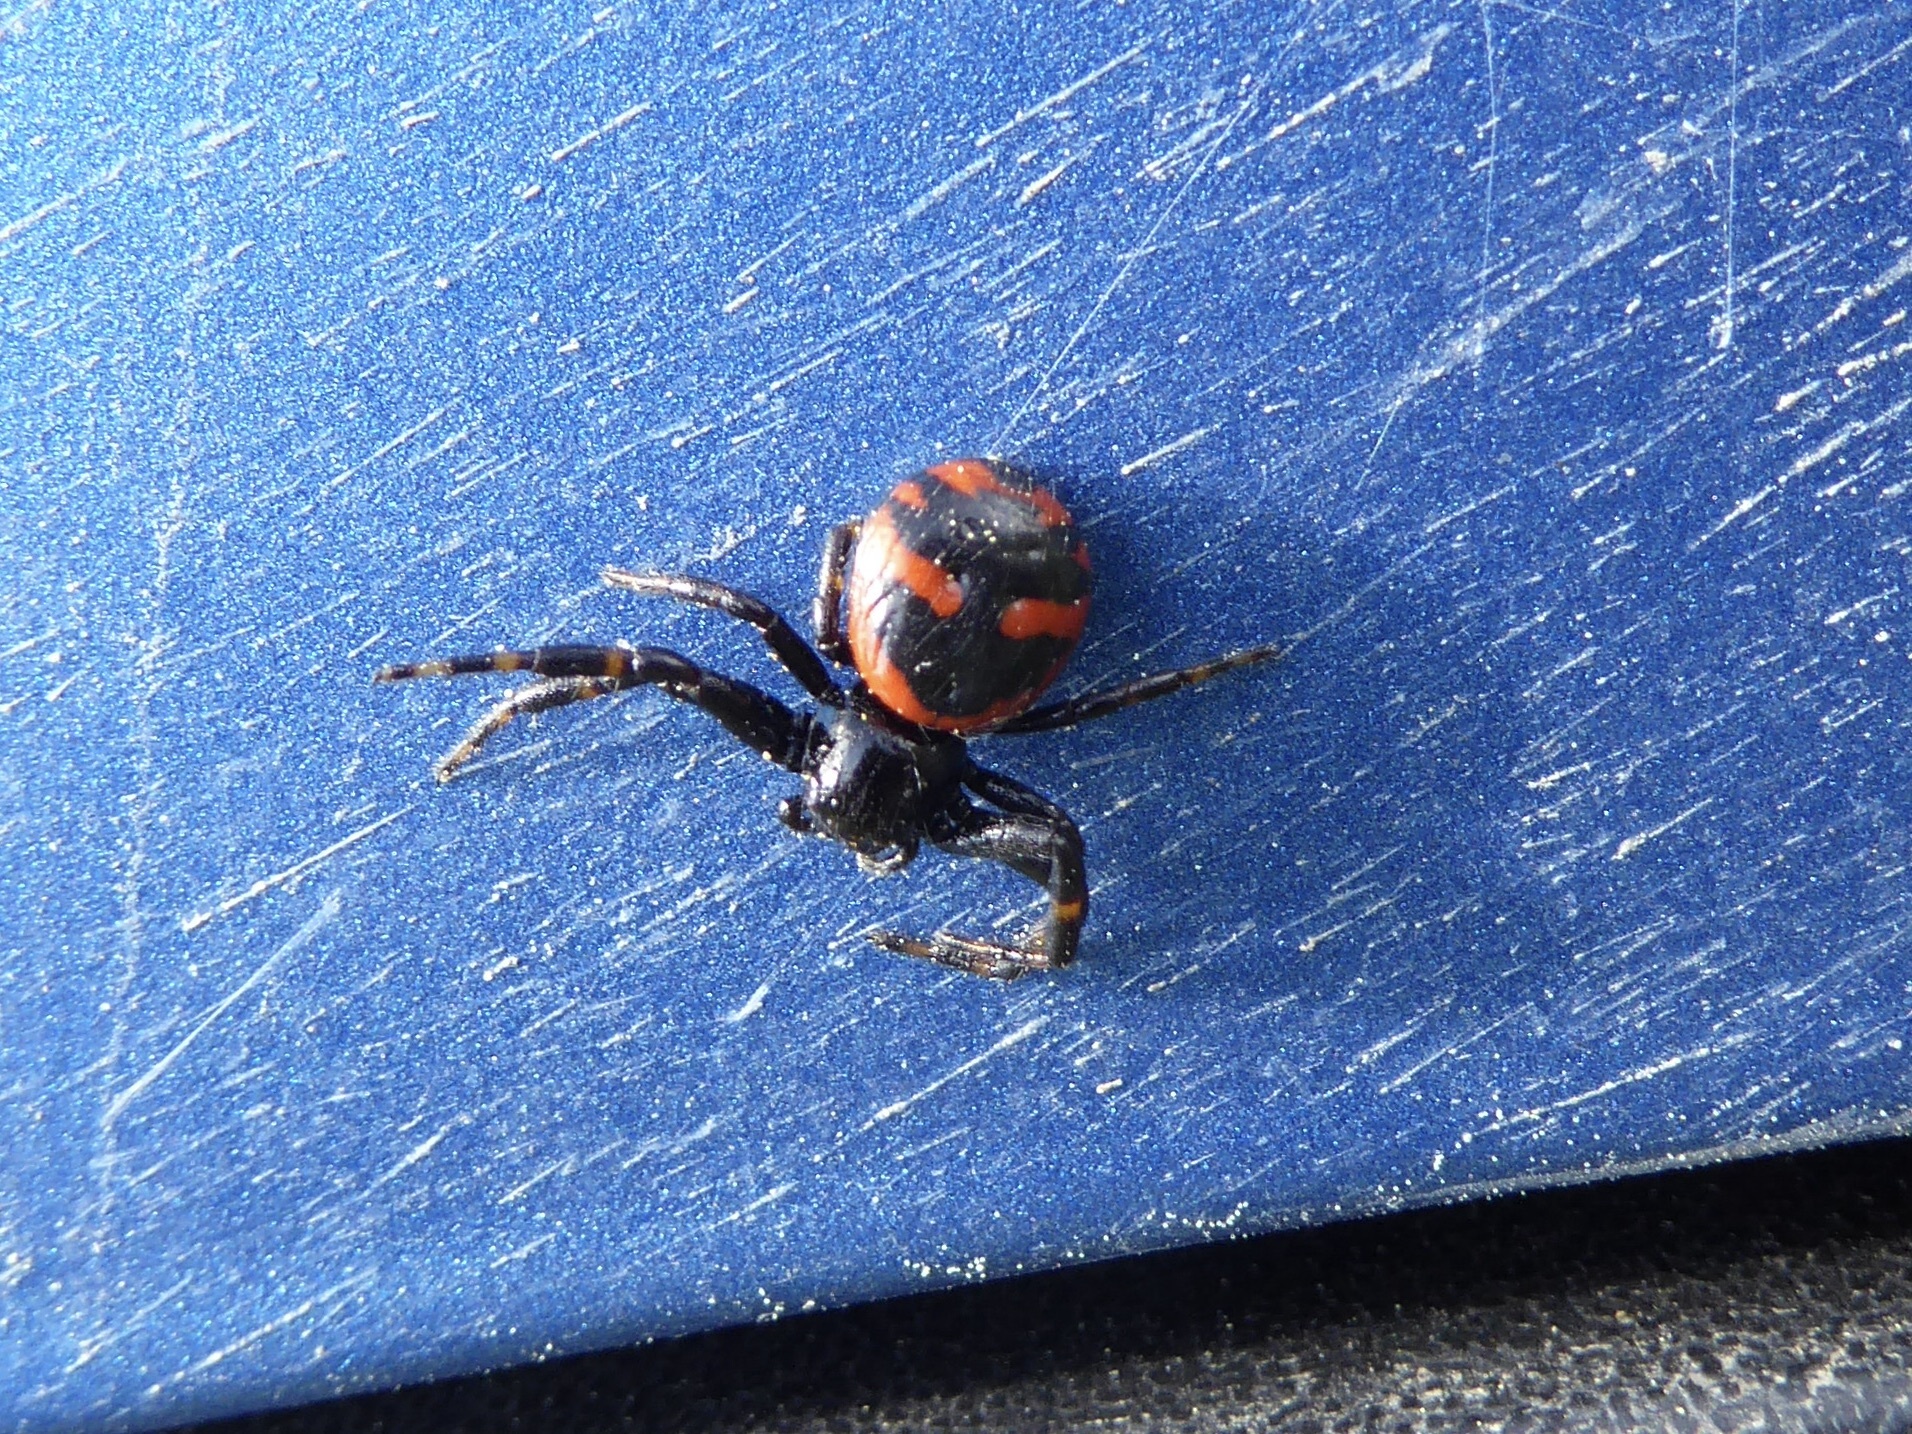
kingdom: Animalia
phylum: Arthropoda
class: Arachnida
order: Araneae
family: Thomisidae
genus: Synema
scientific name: Synema globosum
